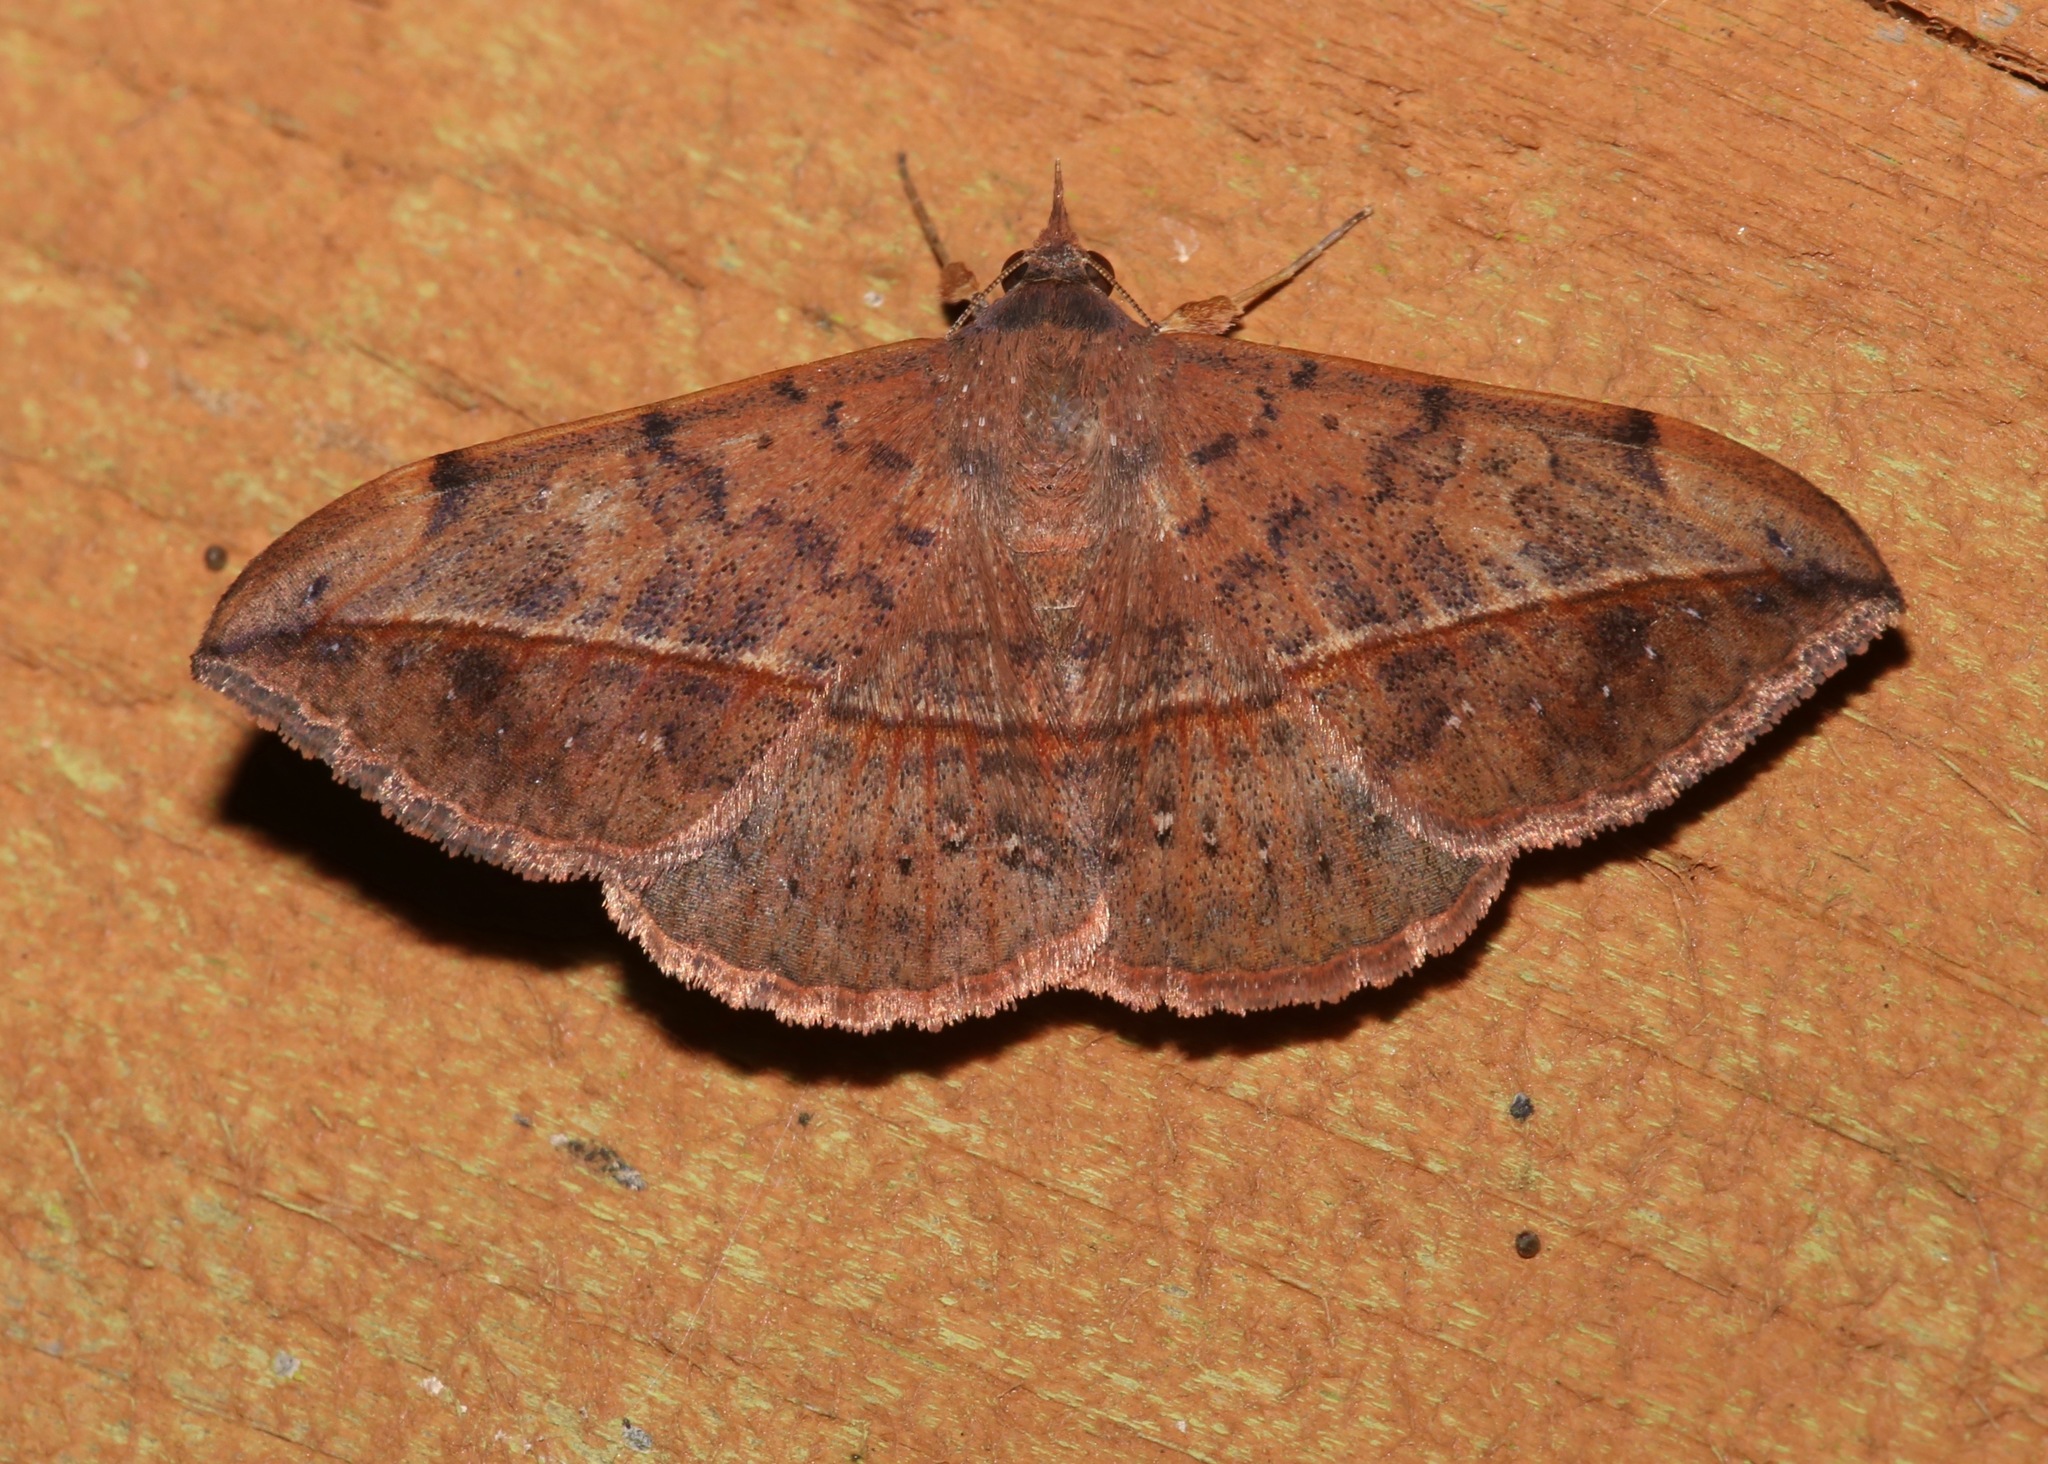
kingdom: Animalia
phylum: Arthropoda
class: Insecta
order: Lepidoptera
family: Erebidae
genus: Anticarsia
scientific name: Anticarsia gemmatalis
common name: Cutworm moth
